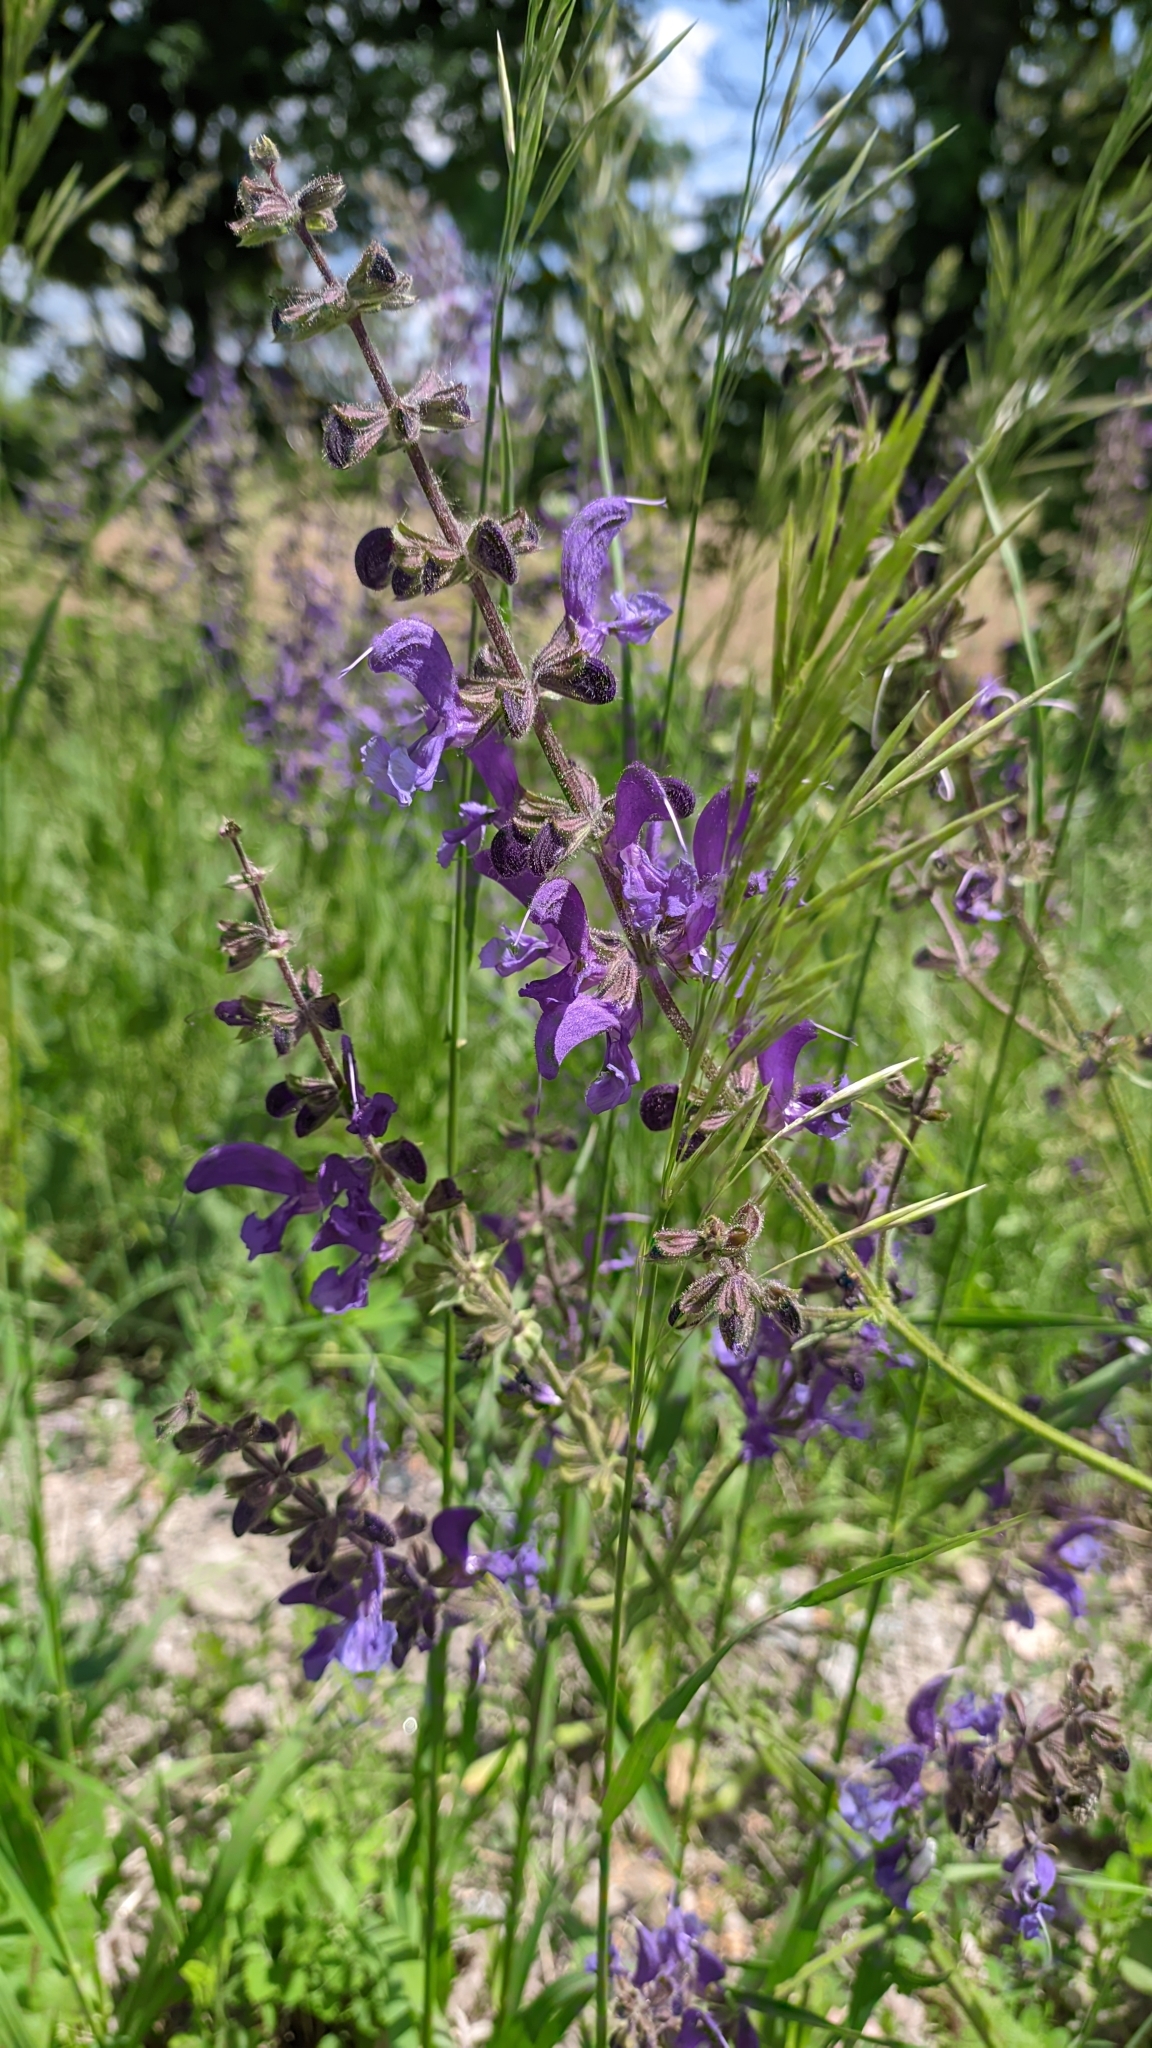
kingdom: Plantae
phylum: Tracheophyta
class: Magnoliopsida
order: Lamiales
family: Lamiaceae
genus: Salvia
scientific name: Salvia pratensis
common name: Meadow sage
